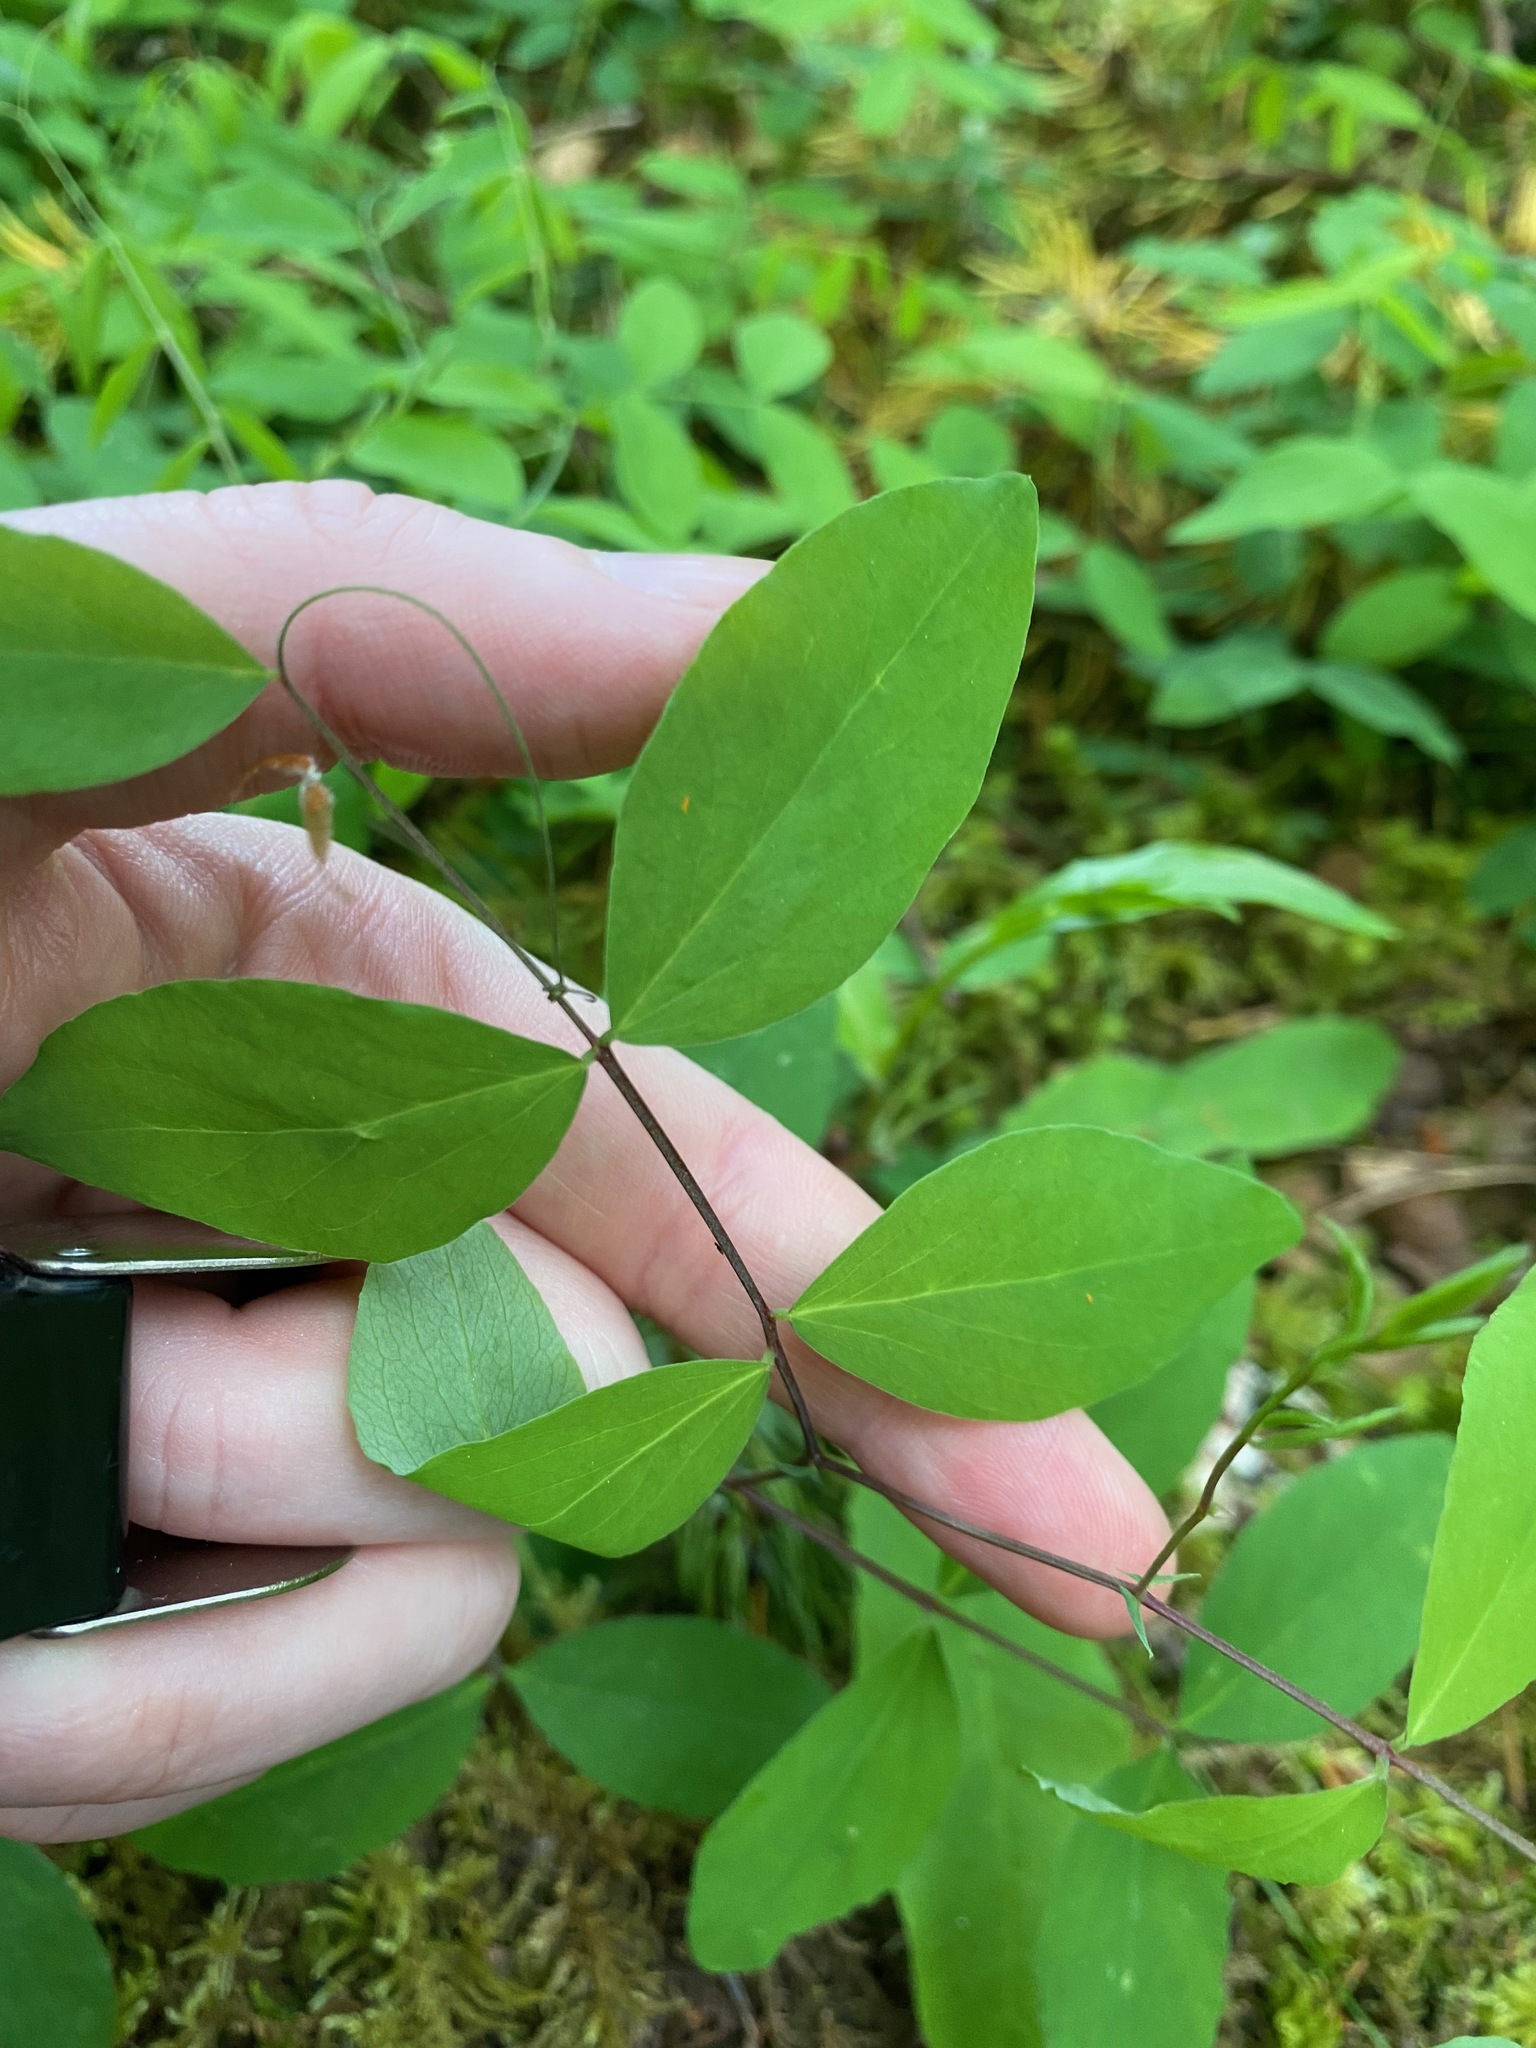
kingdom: Plantae
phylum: Tracheophyta
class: Magnoliopsida
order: Fabales
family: Fabaceae
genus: Lathyrus
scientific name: Lathyrus nevadensis
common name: Sierra nevada peavine
